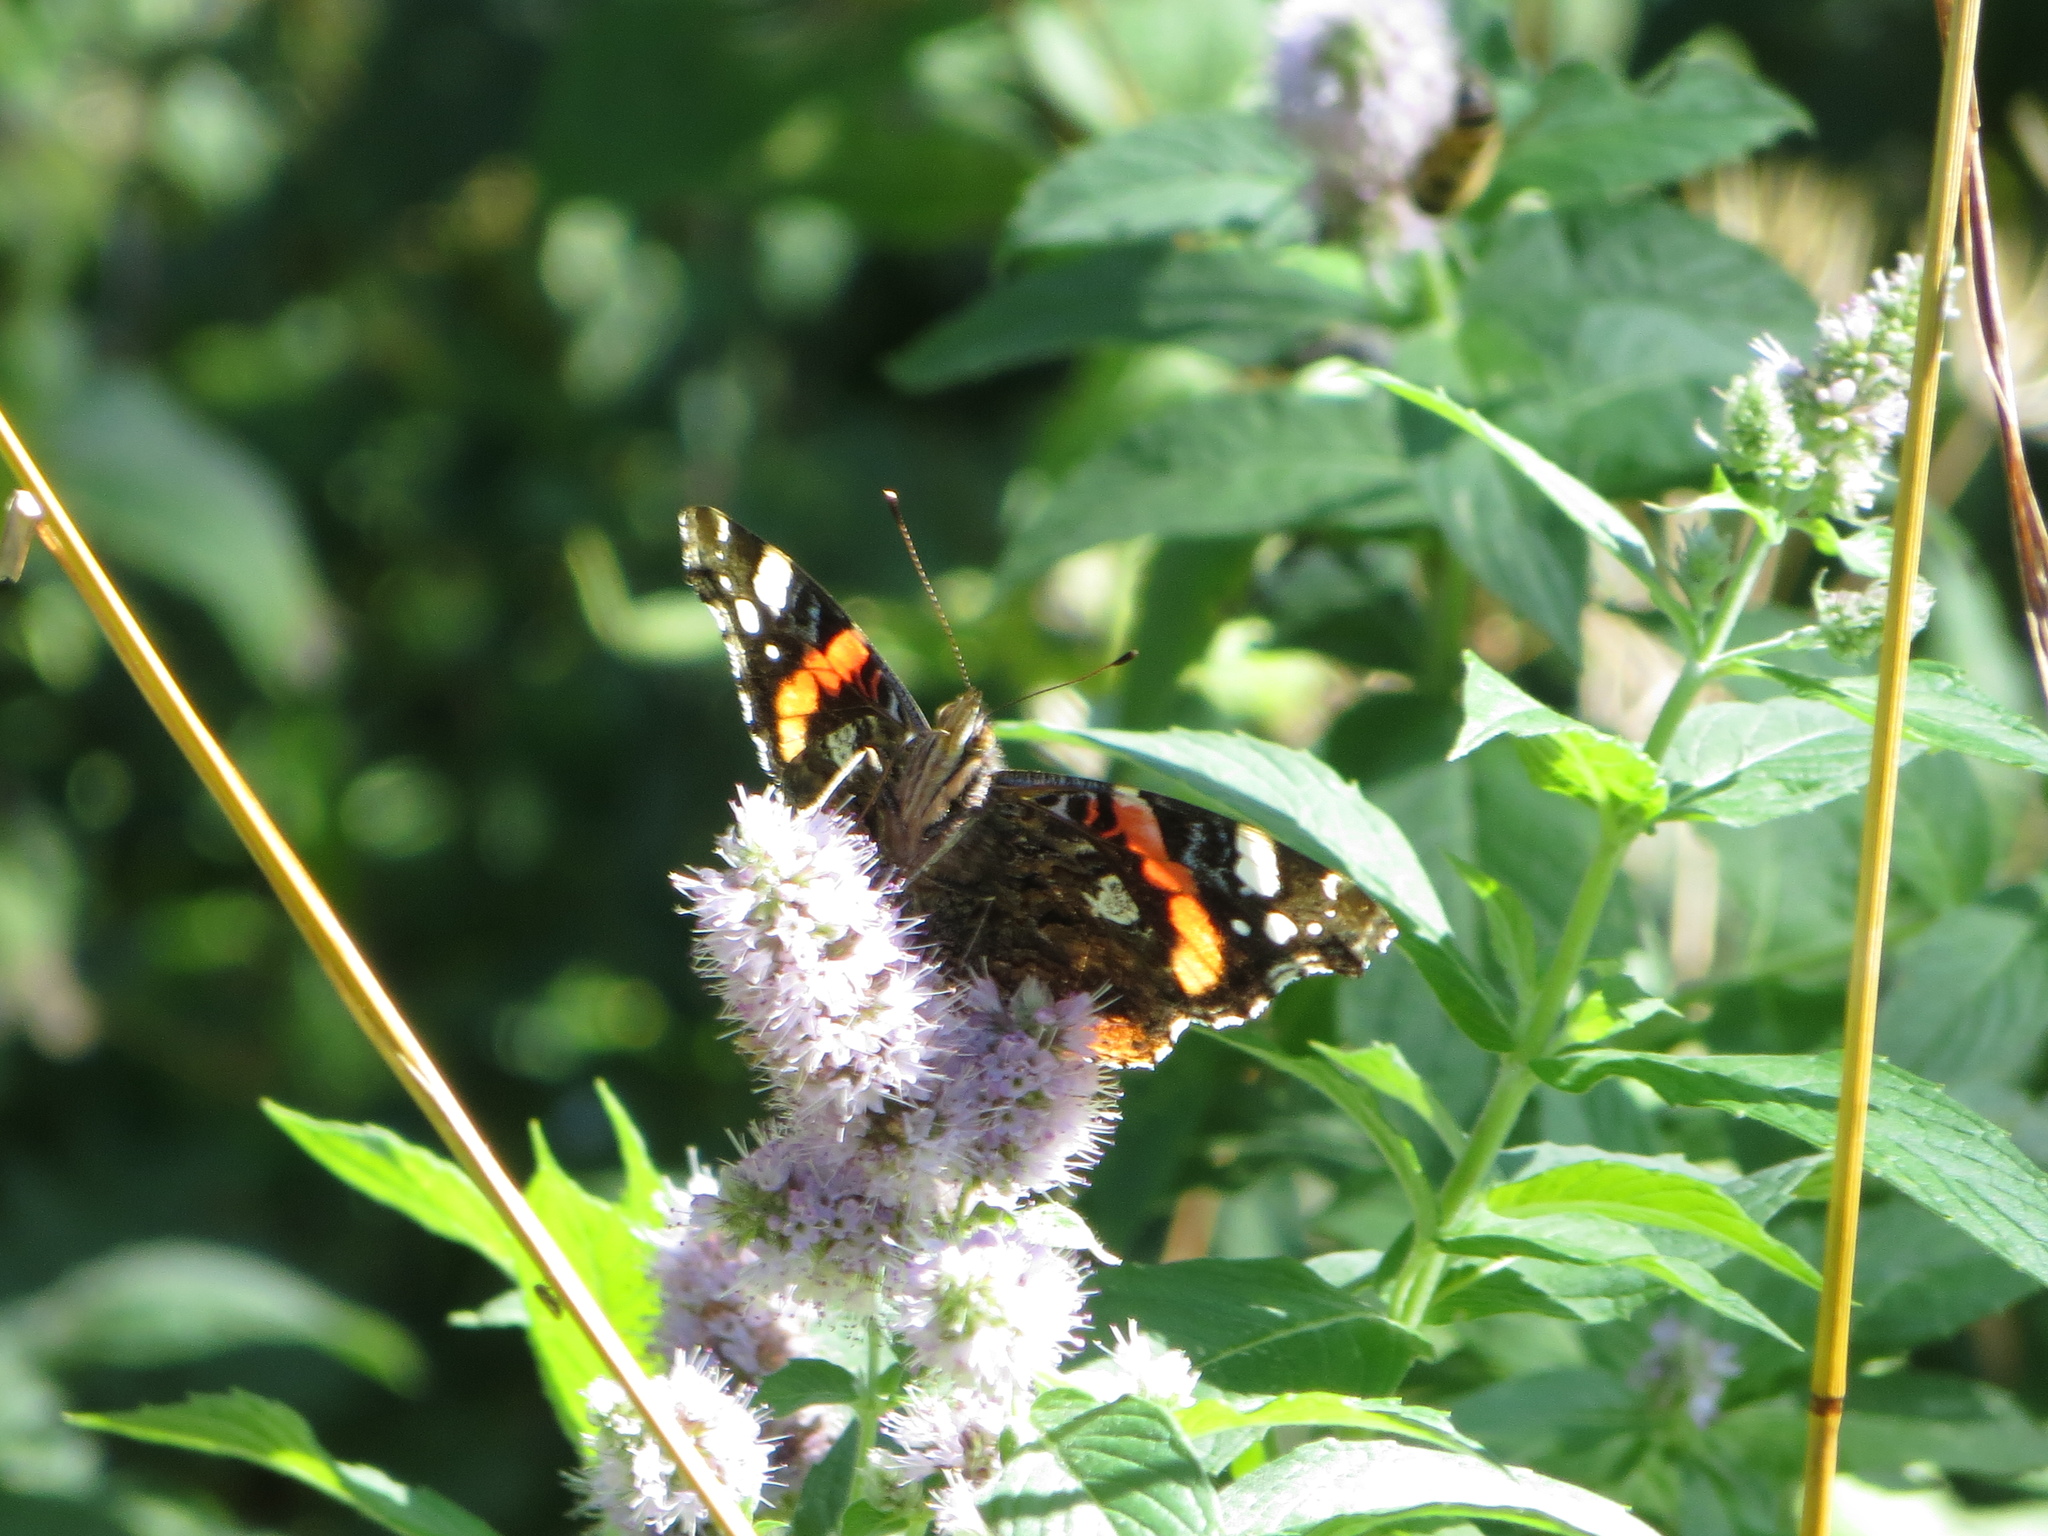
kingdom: Animalia
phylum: Arthropoda
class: Insecta
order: Lepidoptera
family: Nymphalidae
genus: Vanessa
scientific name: Vanessa atalanta
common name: Red admiral
